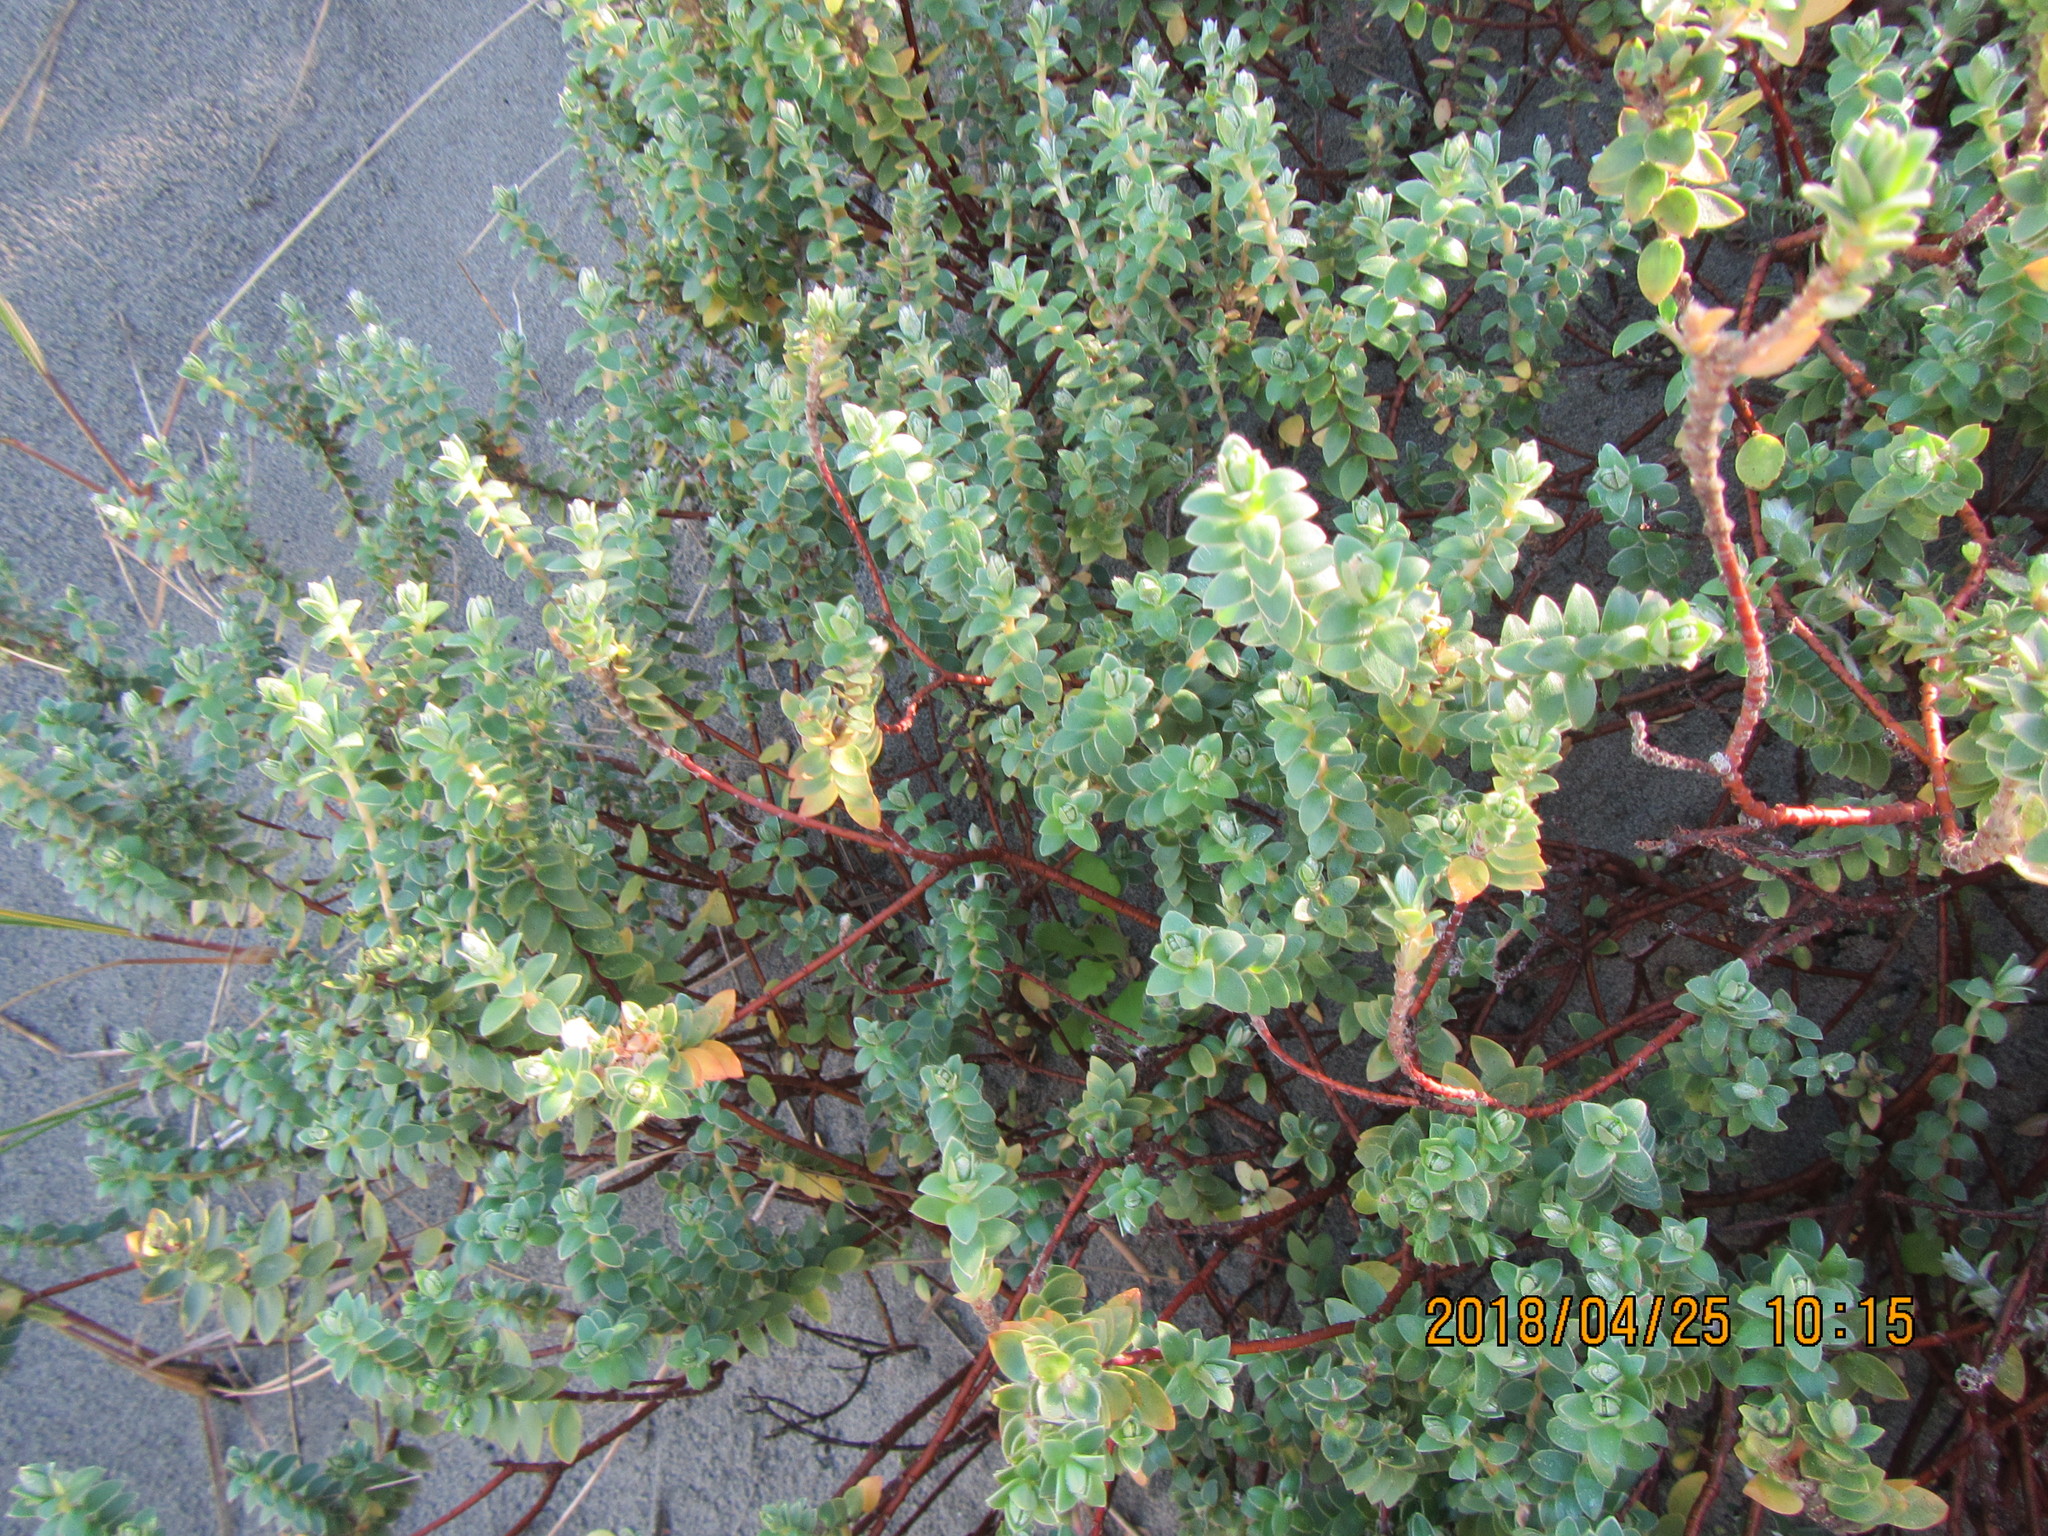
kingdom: Plantae
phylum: Tracheophyta
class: Magnoliopsida
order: Malvales
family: Thymelaeaceae
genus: Pimelea
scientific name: Pimelea villosa
